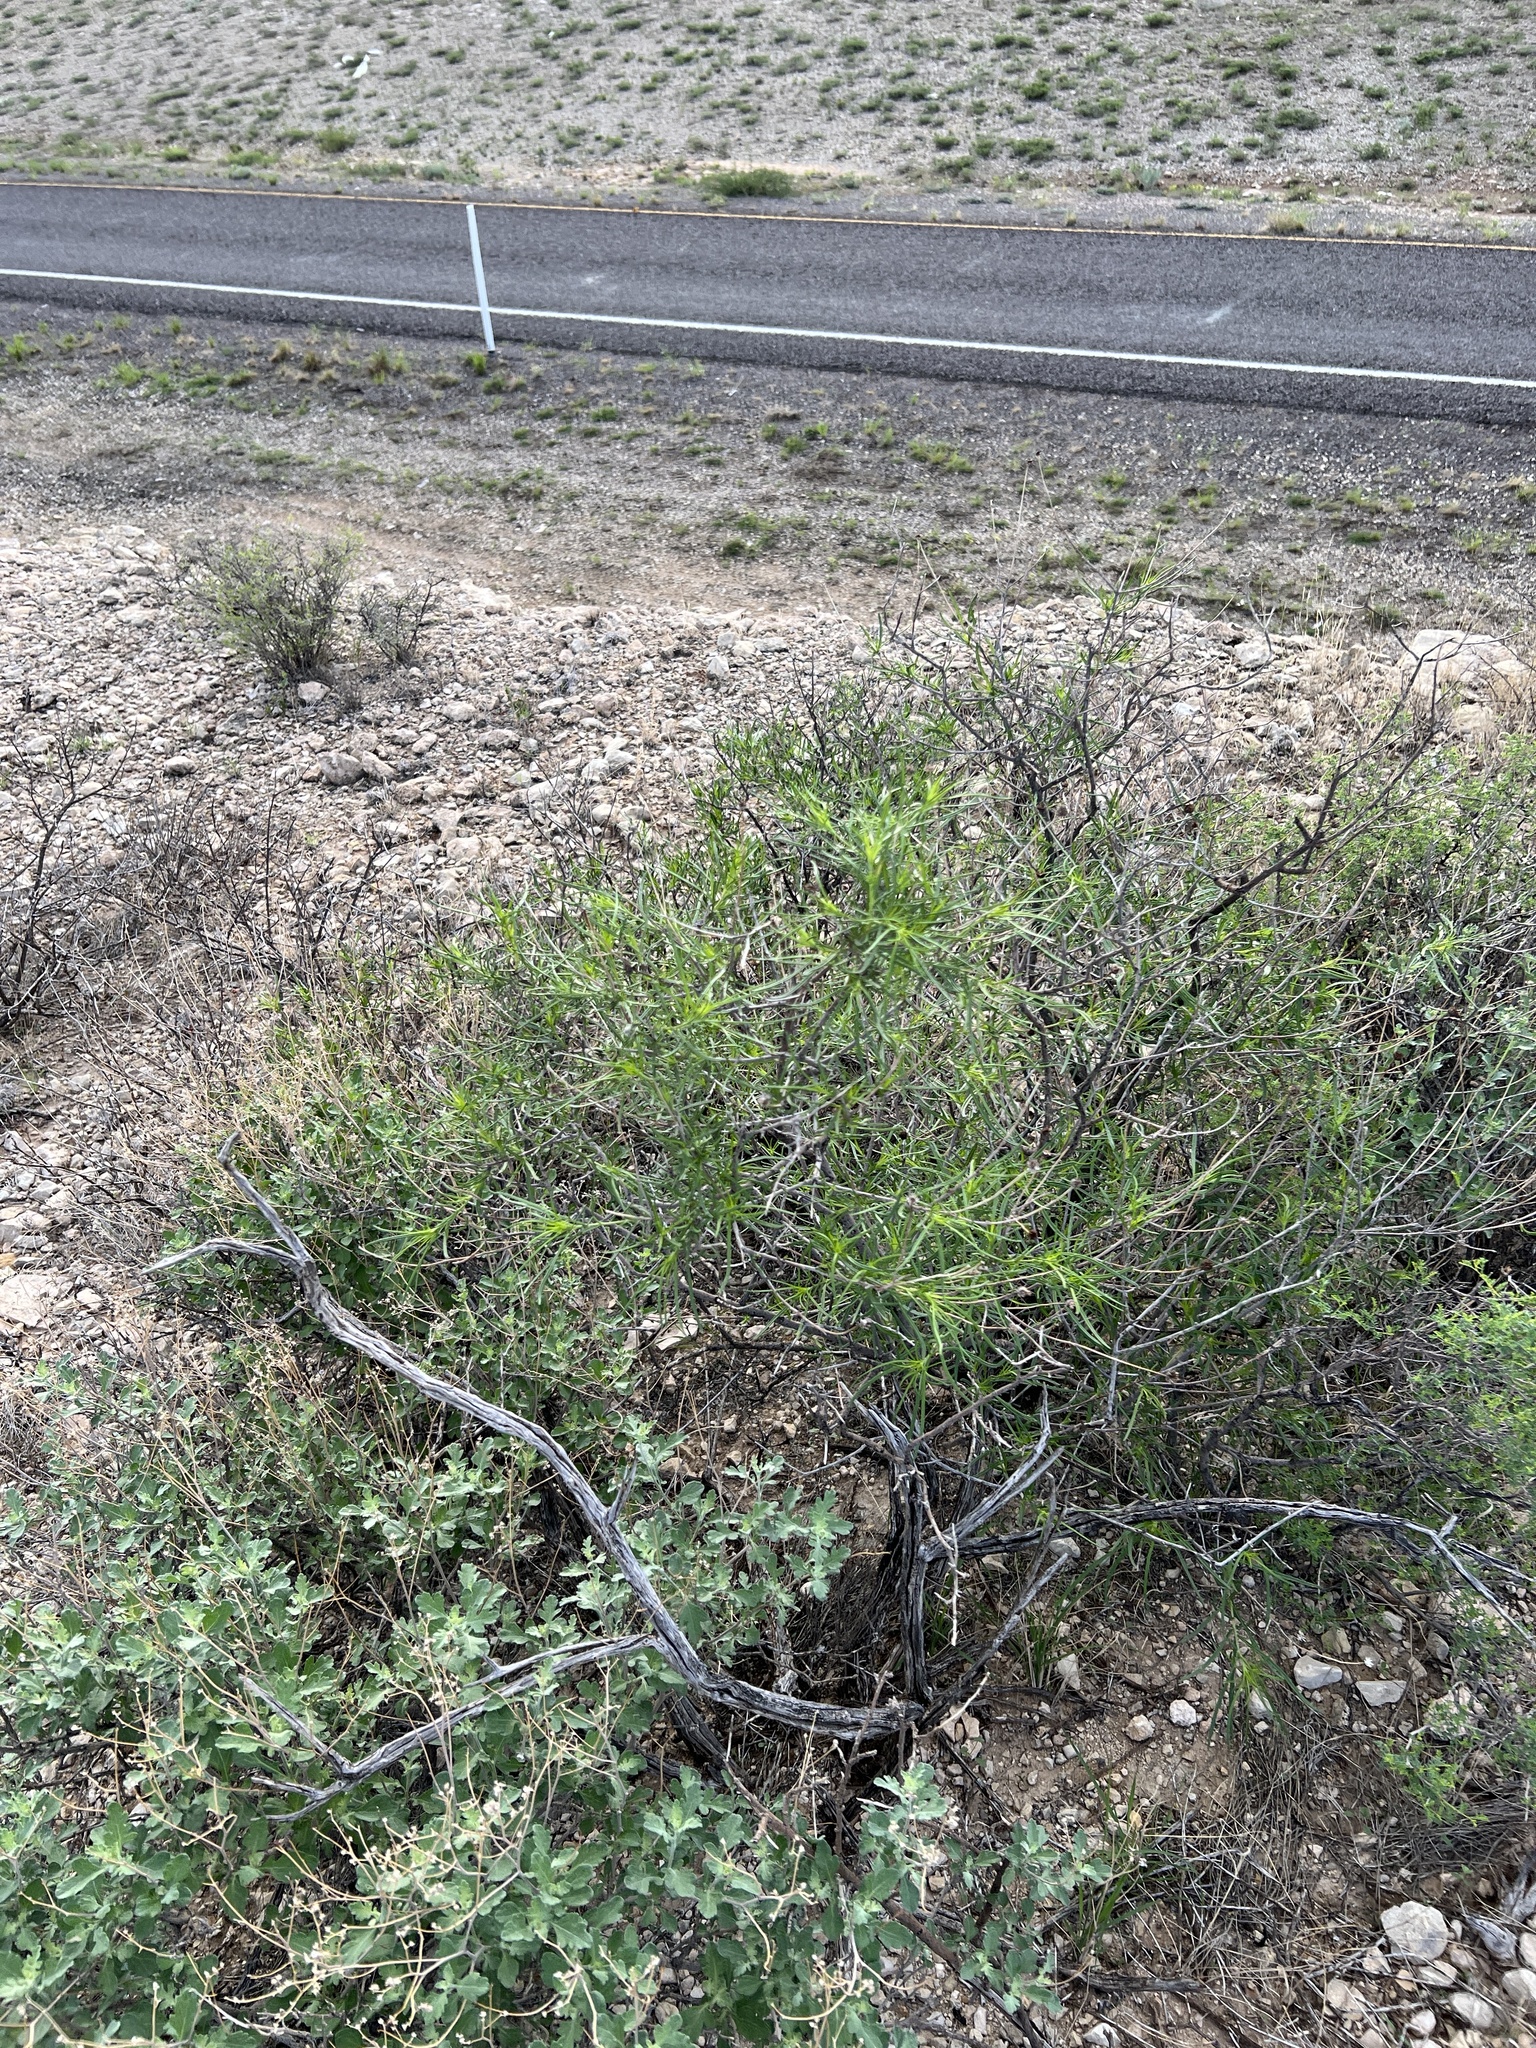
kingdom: Plantae
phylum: Tracheophyta
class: Magnoliopsida
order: Asterales
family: Asteraceae
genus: Sidneya
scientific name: Sidneya tenuifolia
